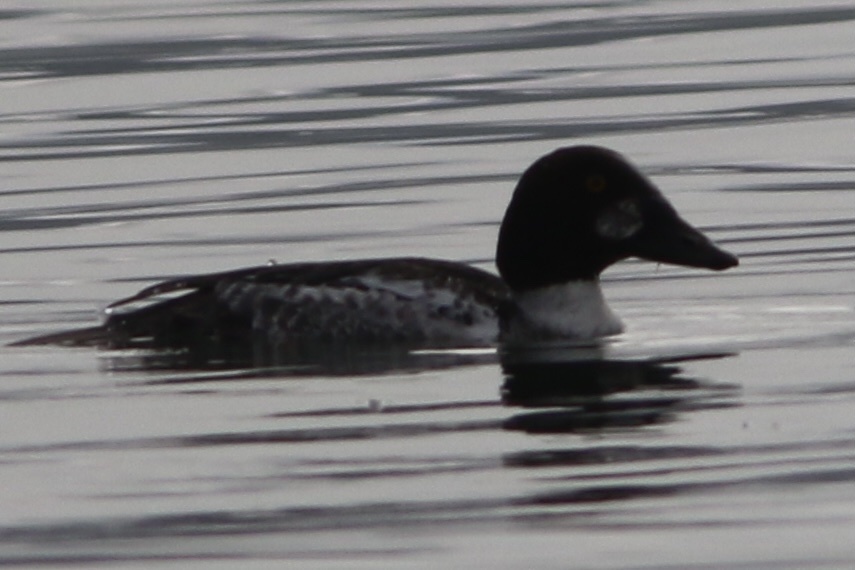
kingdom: Animalia
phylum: Chordata
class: Aves
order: Anseriformes
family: Anatidae
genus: Bucephala
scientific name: Bucephala clangula
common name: Common goldeneye
